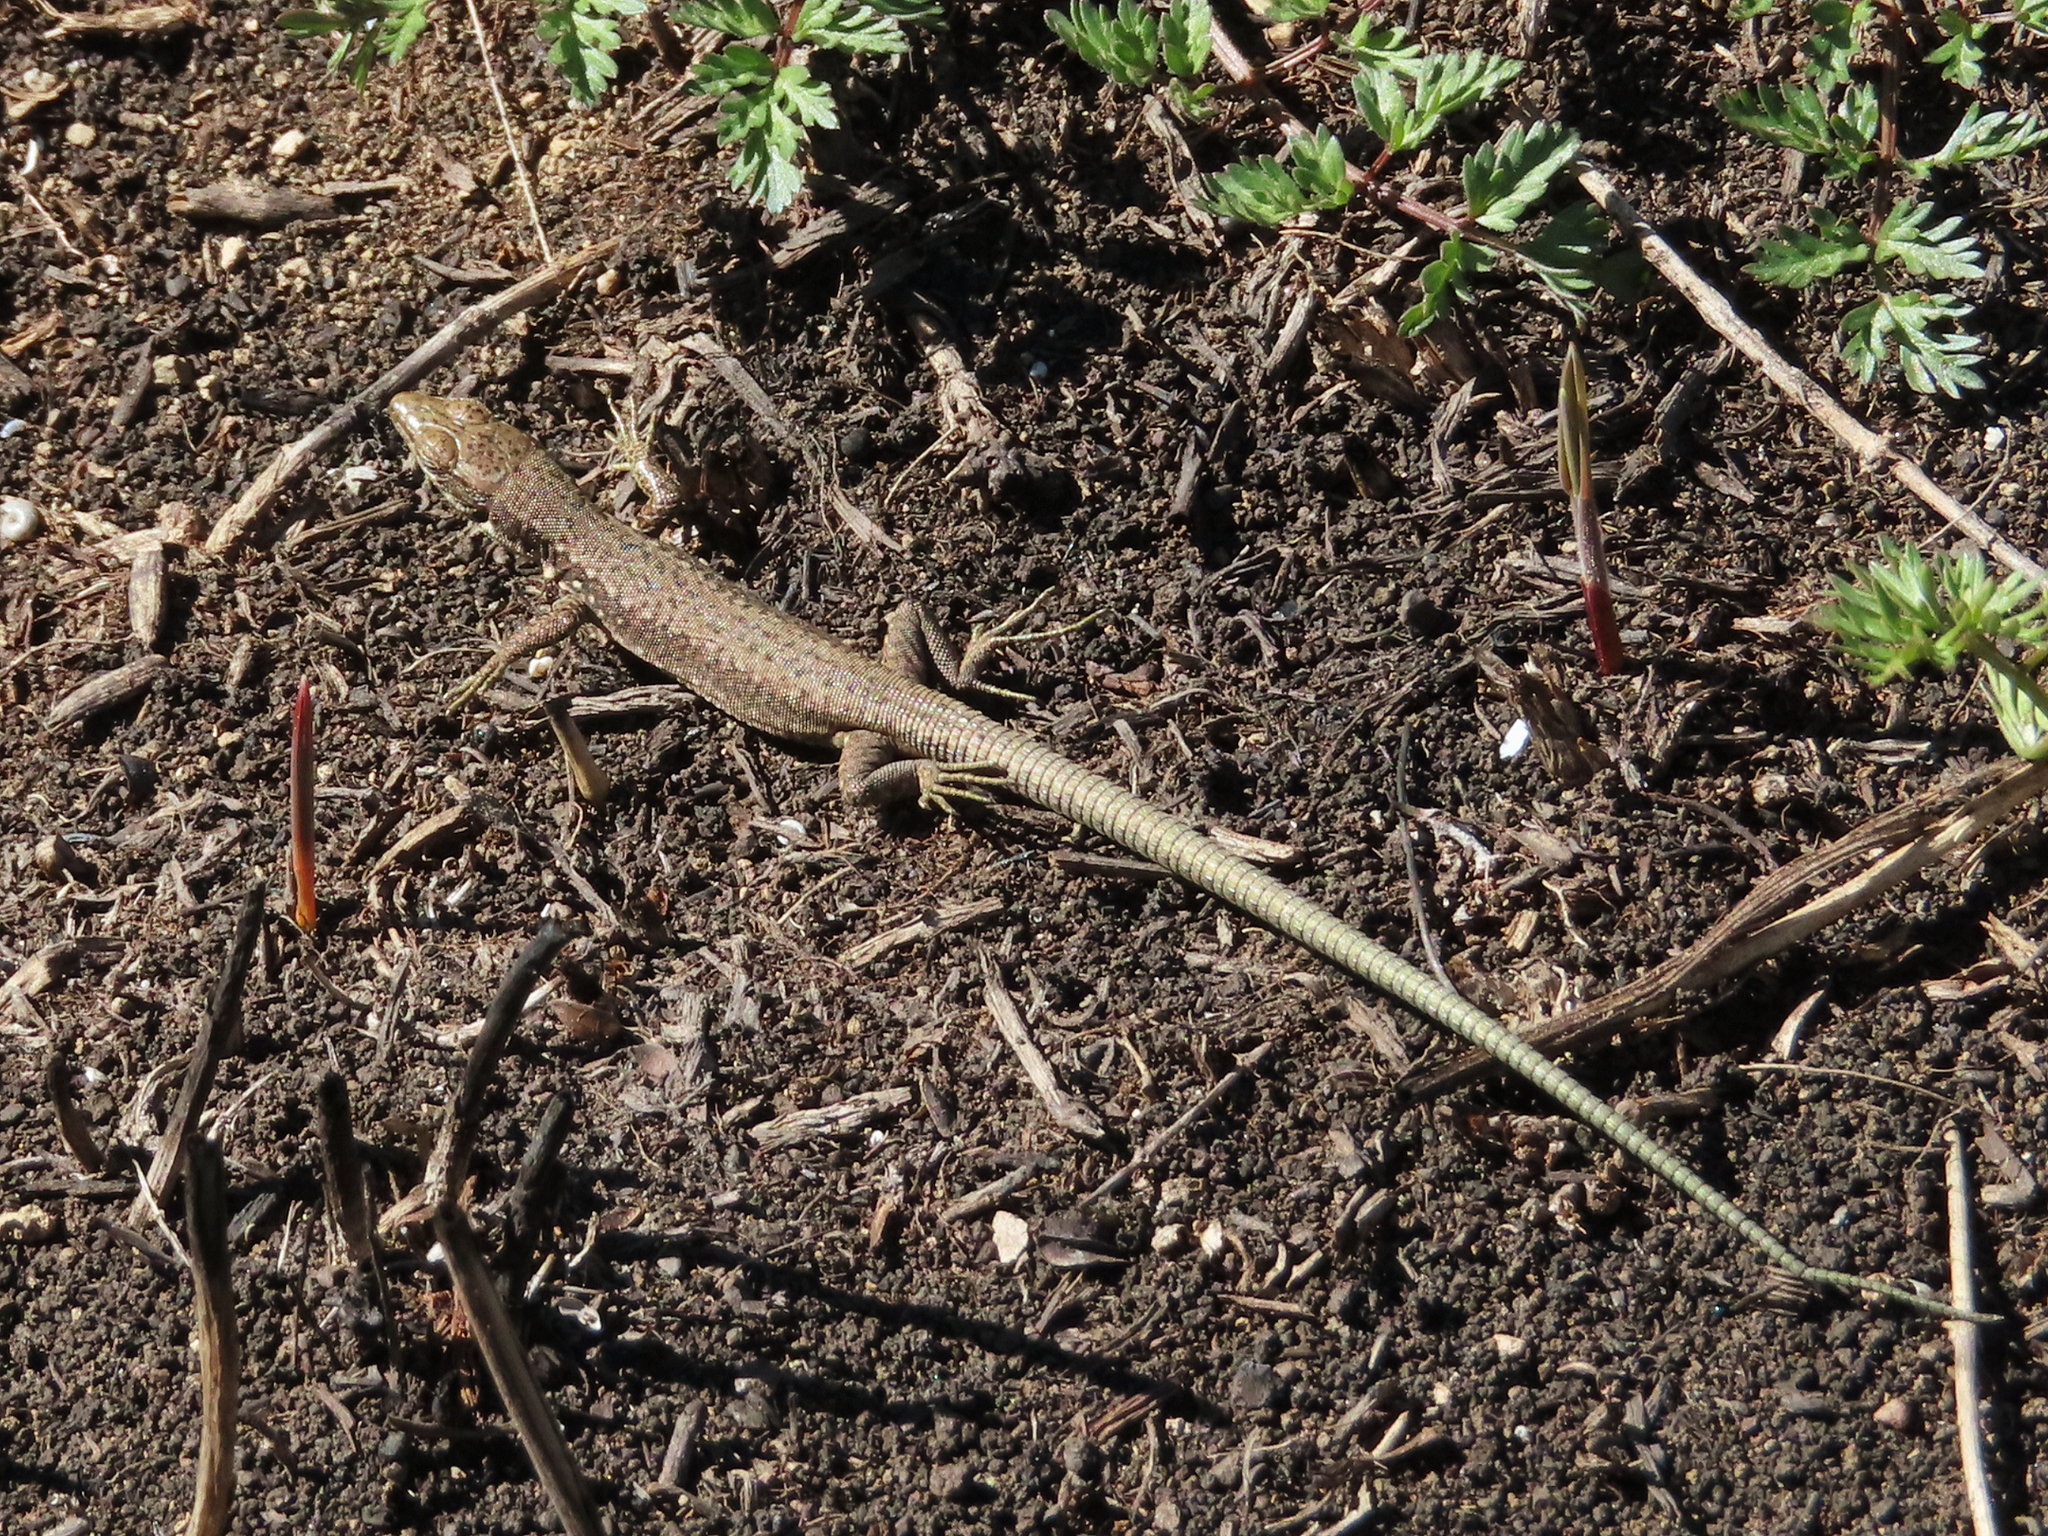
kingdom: Animalia
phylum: Chordata
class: Squamata
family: Lacertidae
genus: Darevskia
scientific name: Darevskia raddei
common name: Radde's lizard
